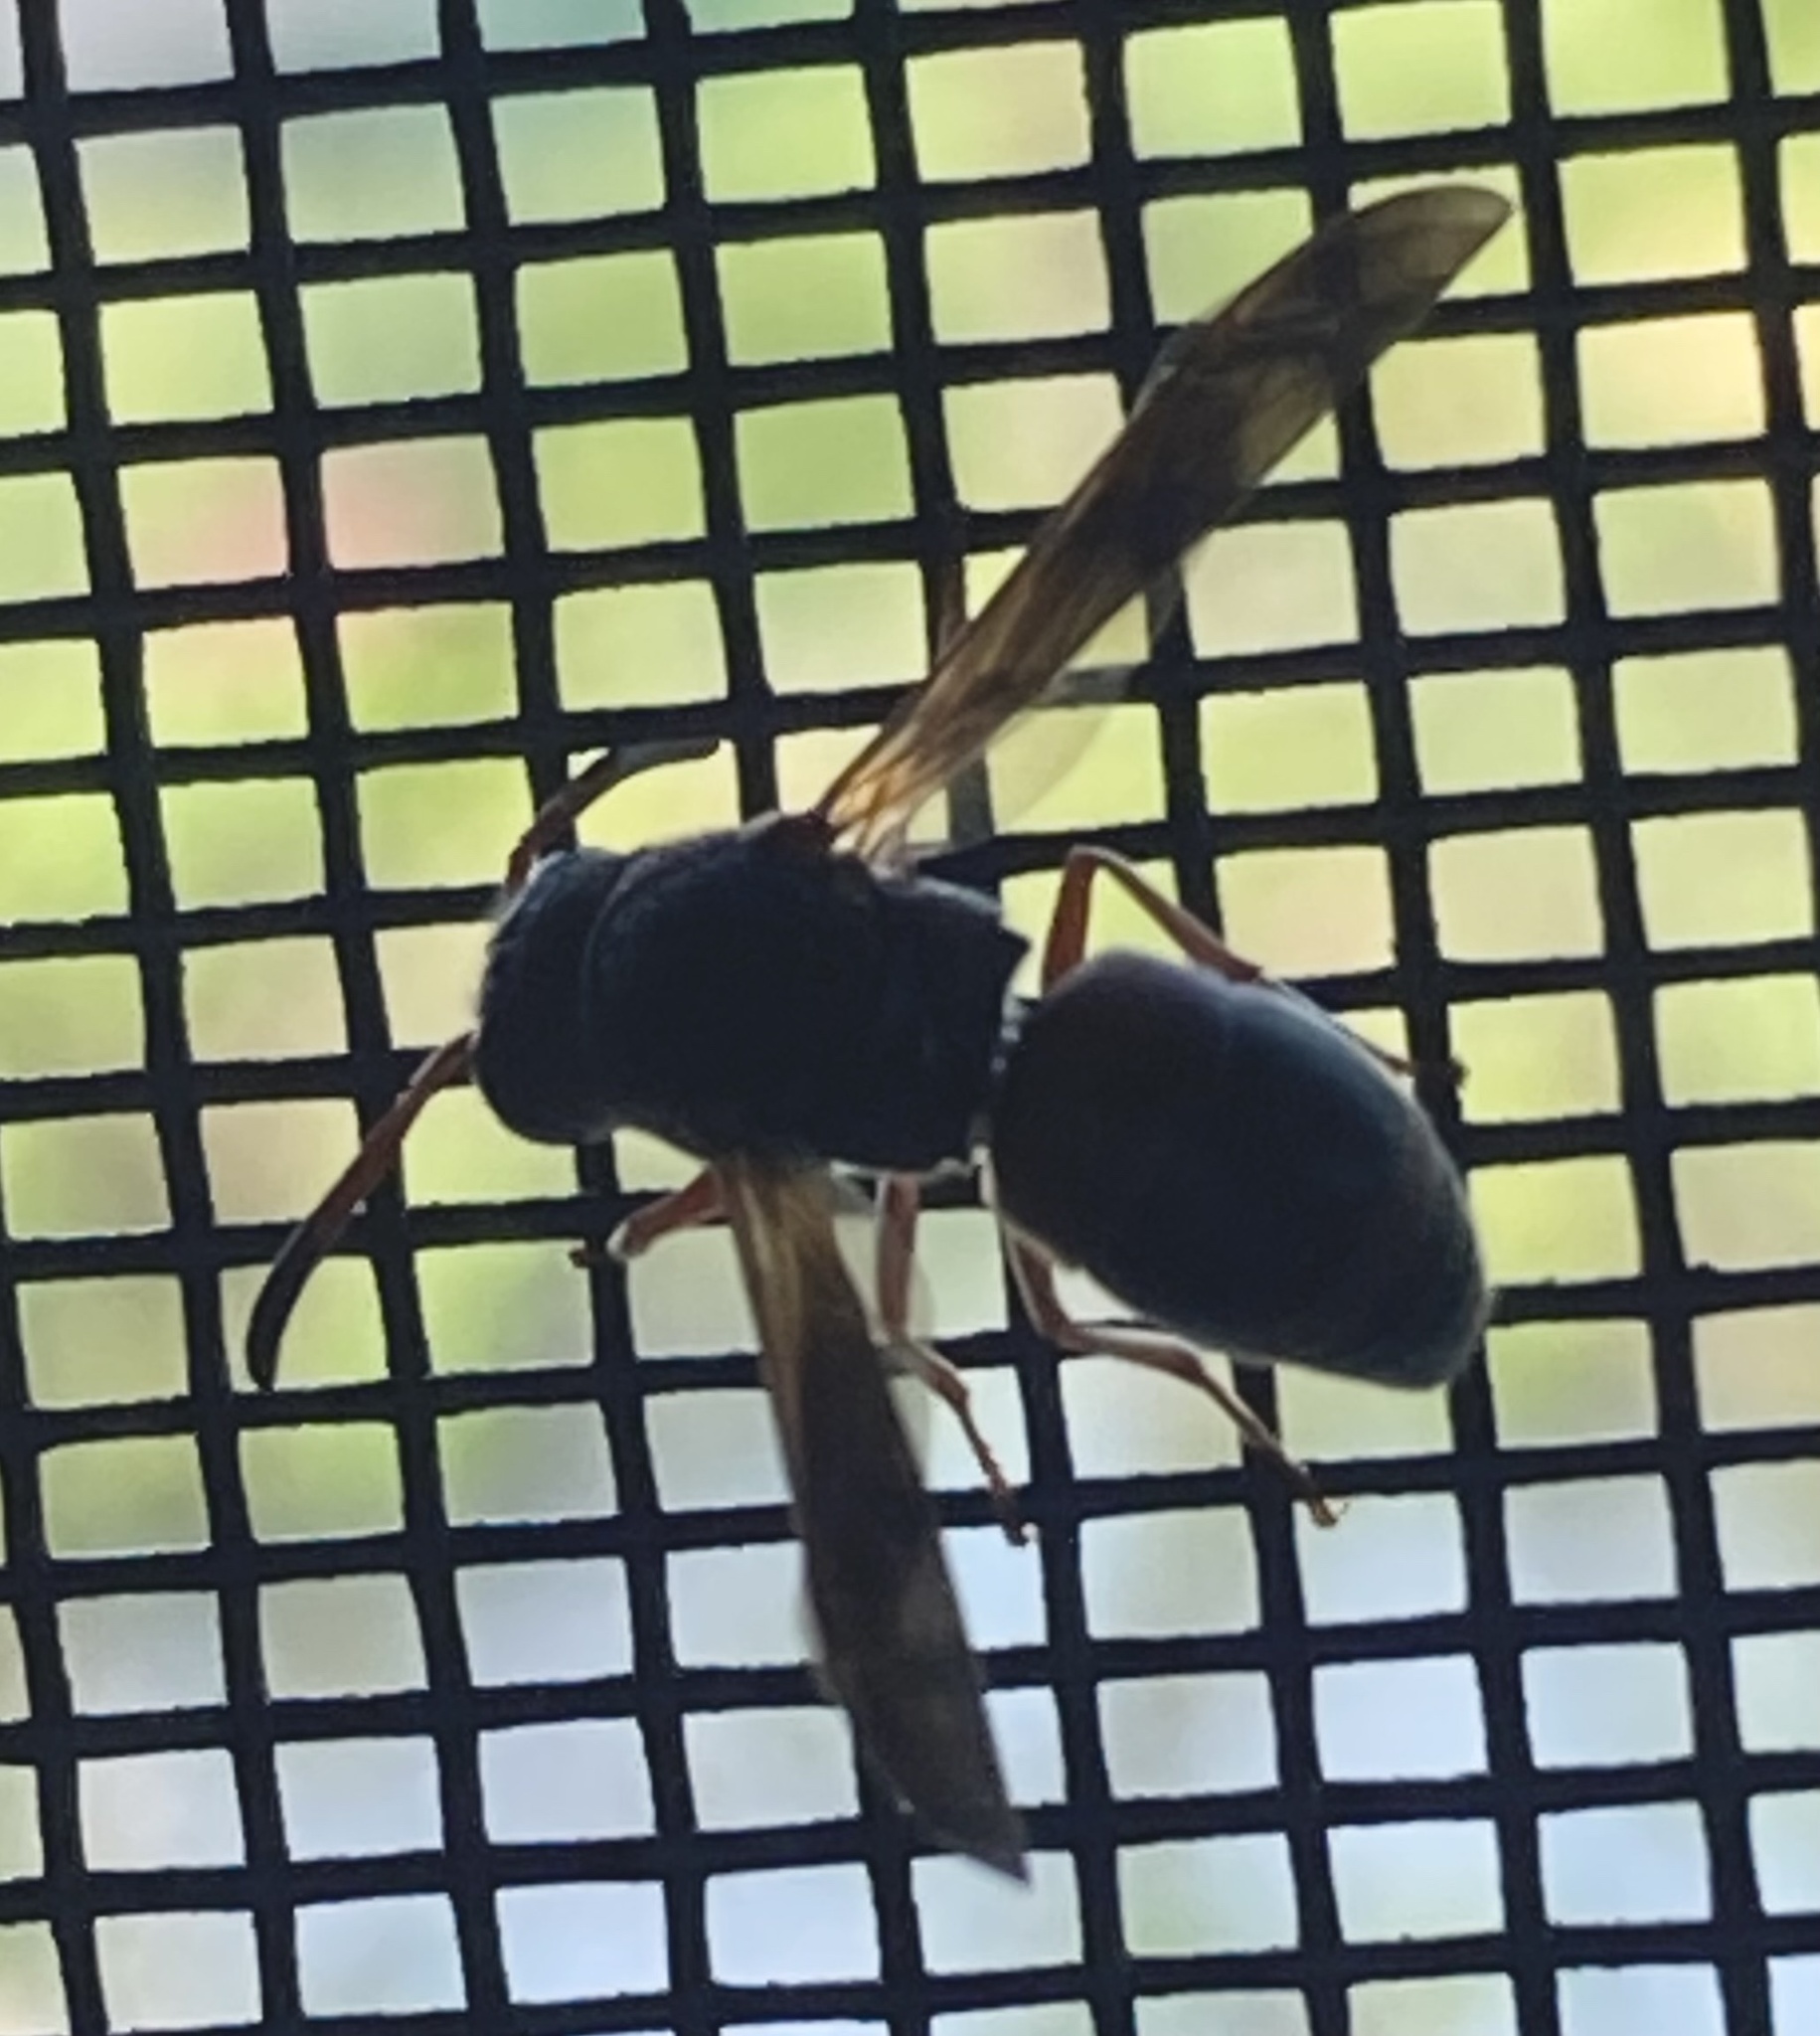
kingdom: Animalia
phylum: Arthropoda
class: Insecta
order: Hymenoptera
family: Eumenidae
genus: Pachodynerus
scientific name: Pachodynerus erynnis
